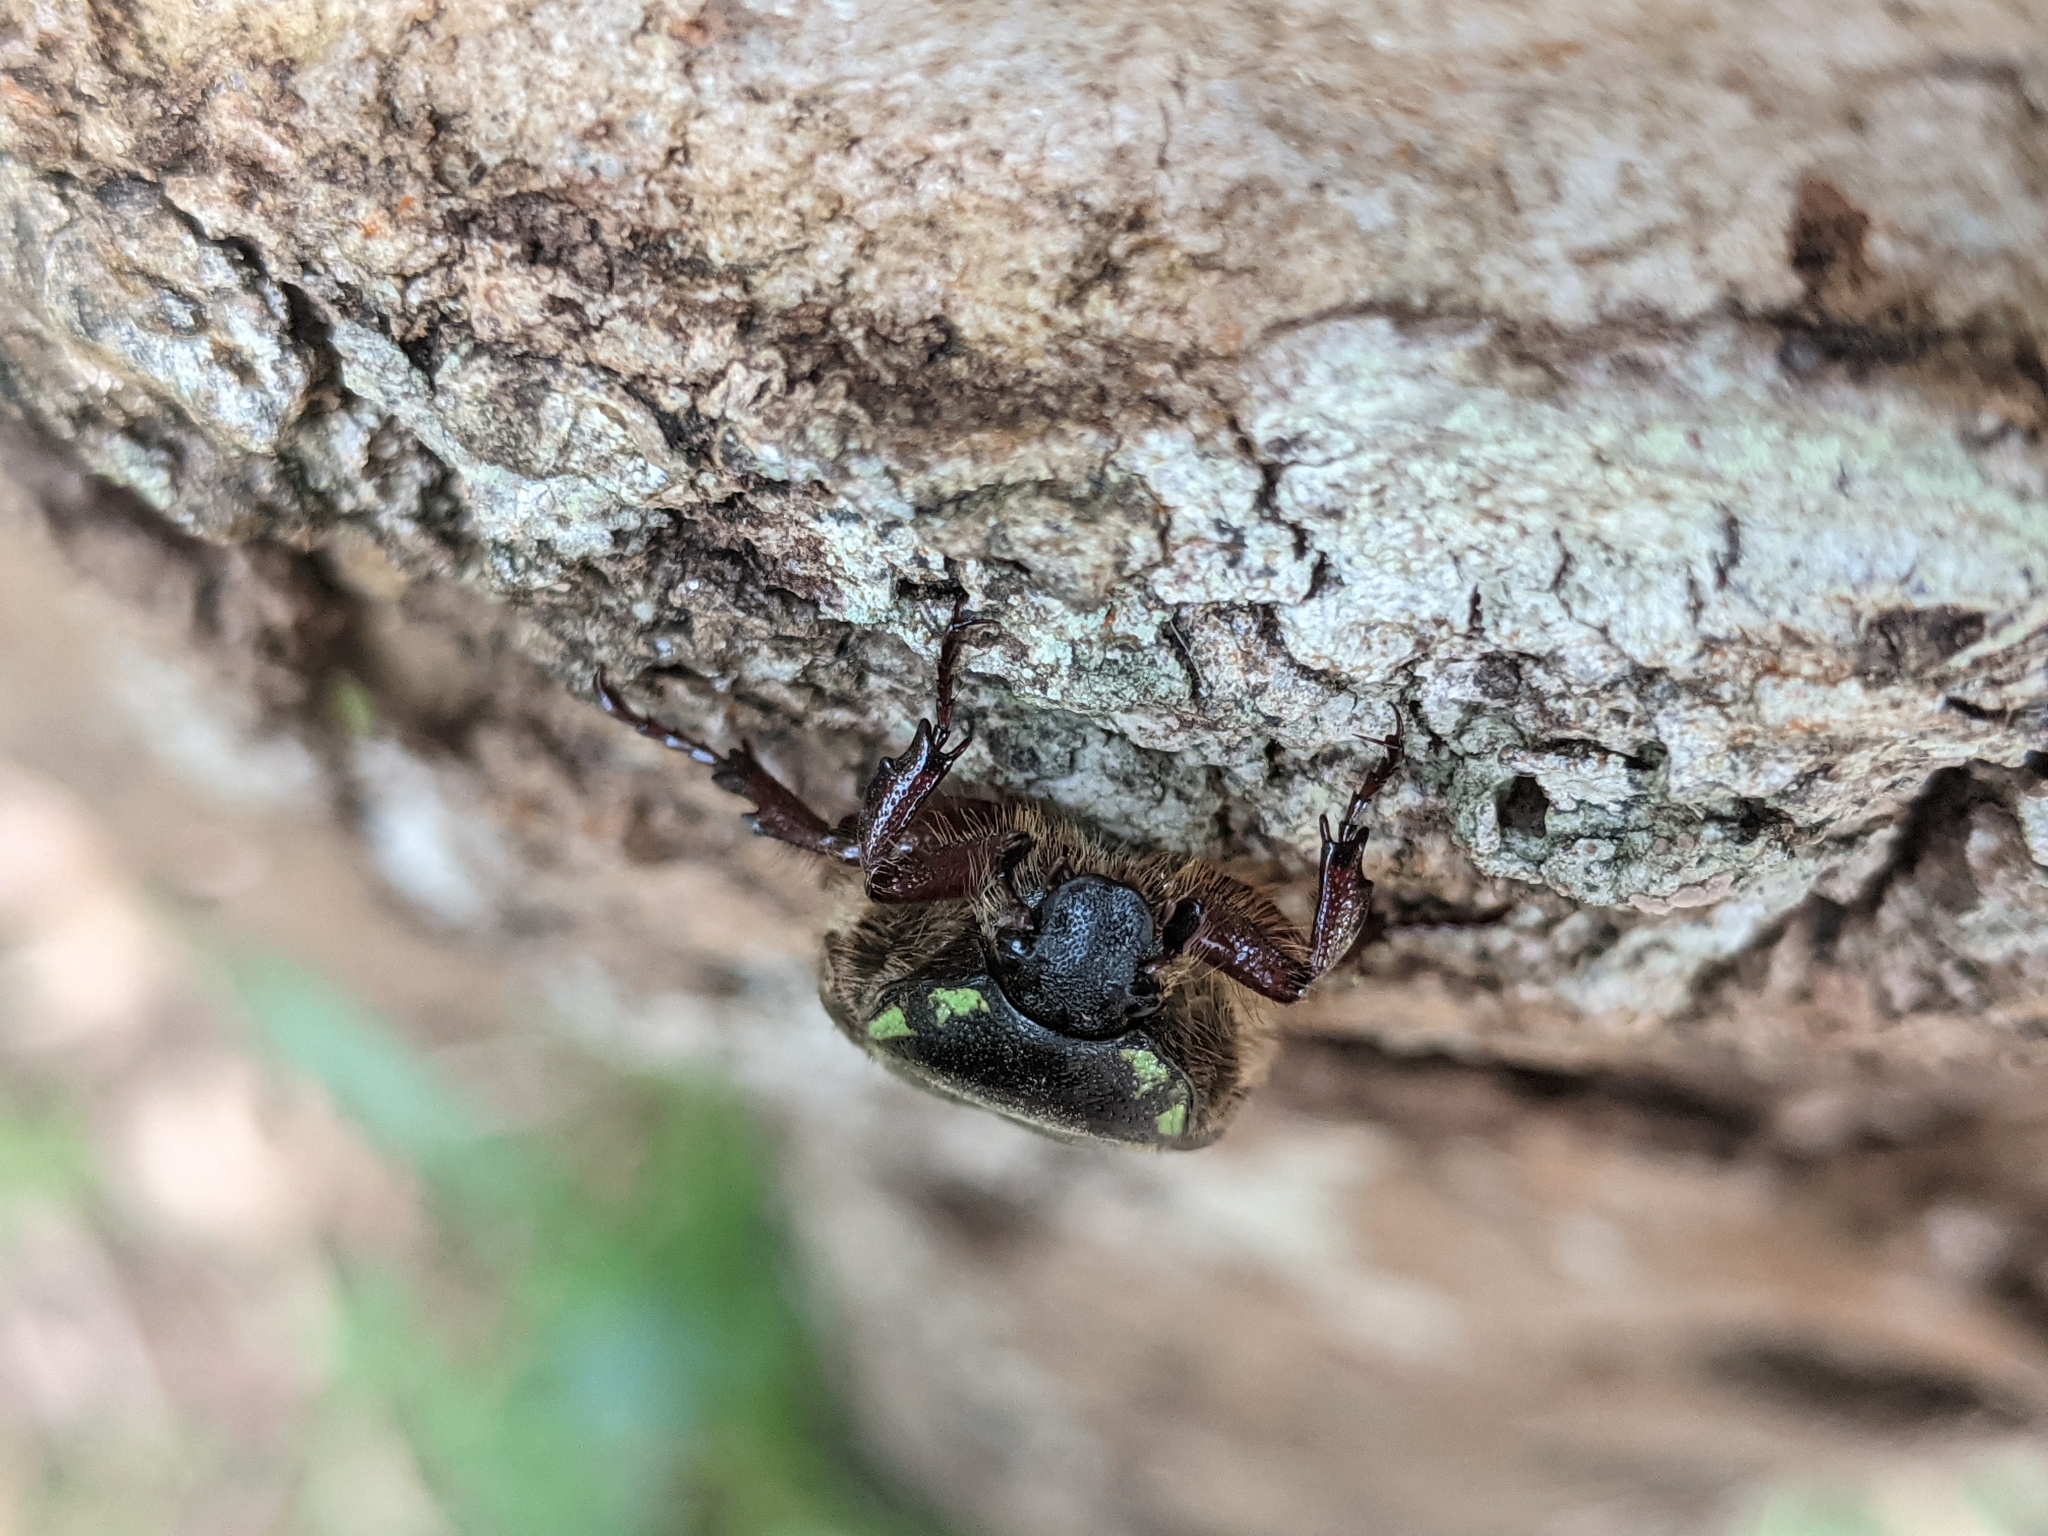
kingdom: Animalia
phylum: Arthropoda
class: Insecta
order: Coleoptera
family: Scarabaeidae
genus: Chlorobapta
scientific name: Chlorobapta frontalis
